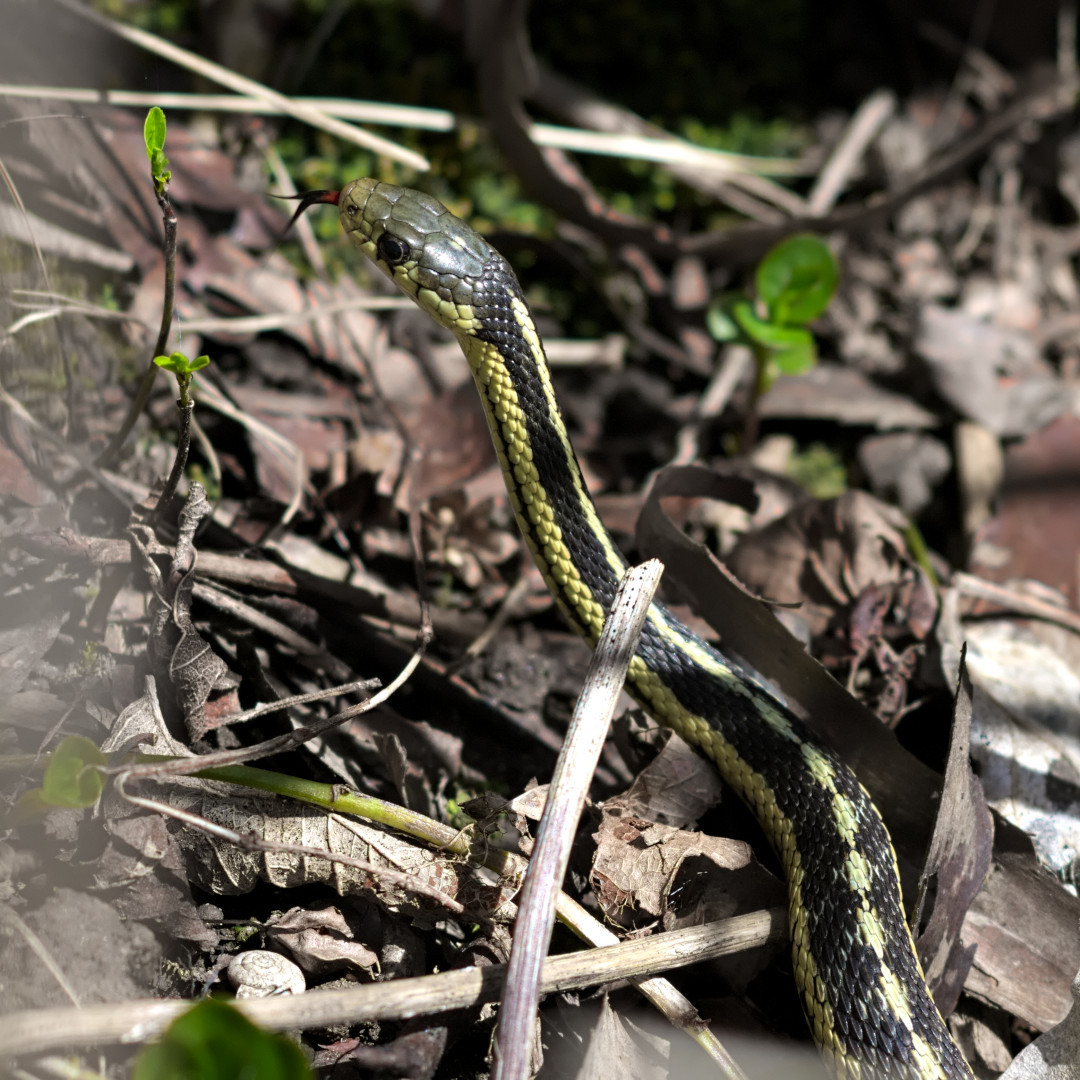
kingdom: Animalia
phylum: Chordata
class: Squamata
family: Colubridae
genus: Thamnophis
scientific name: Thamnophis sirtalis
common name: Common garter snake
